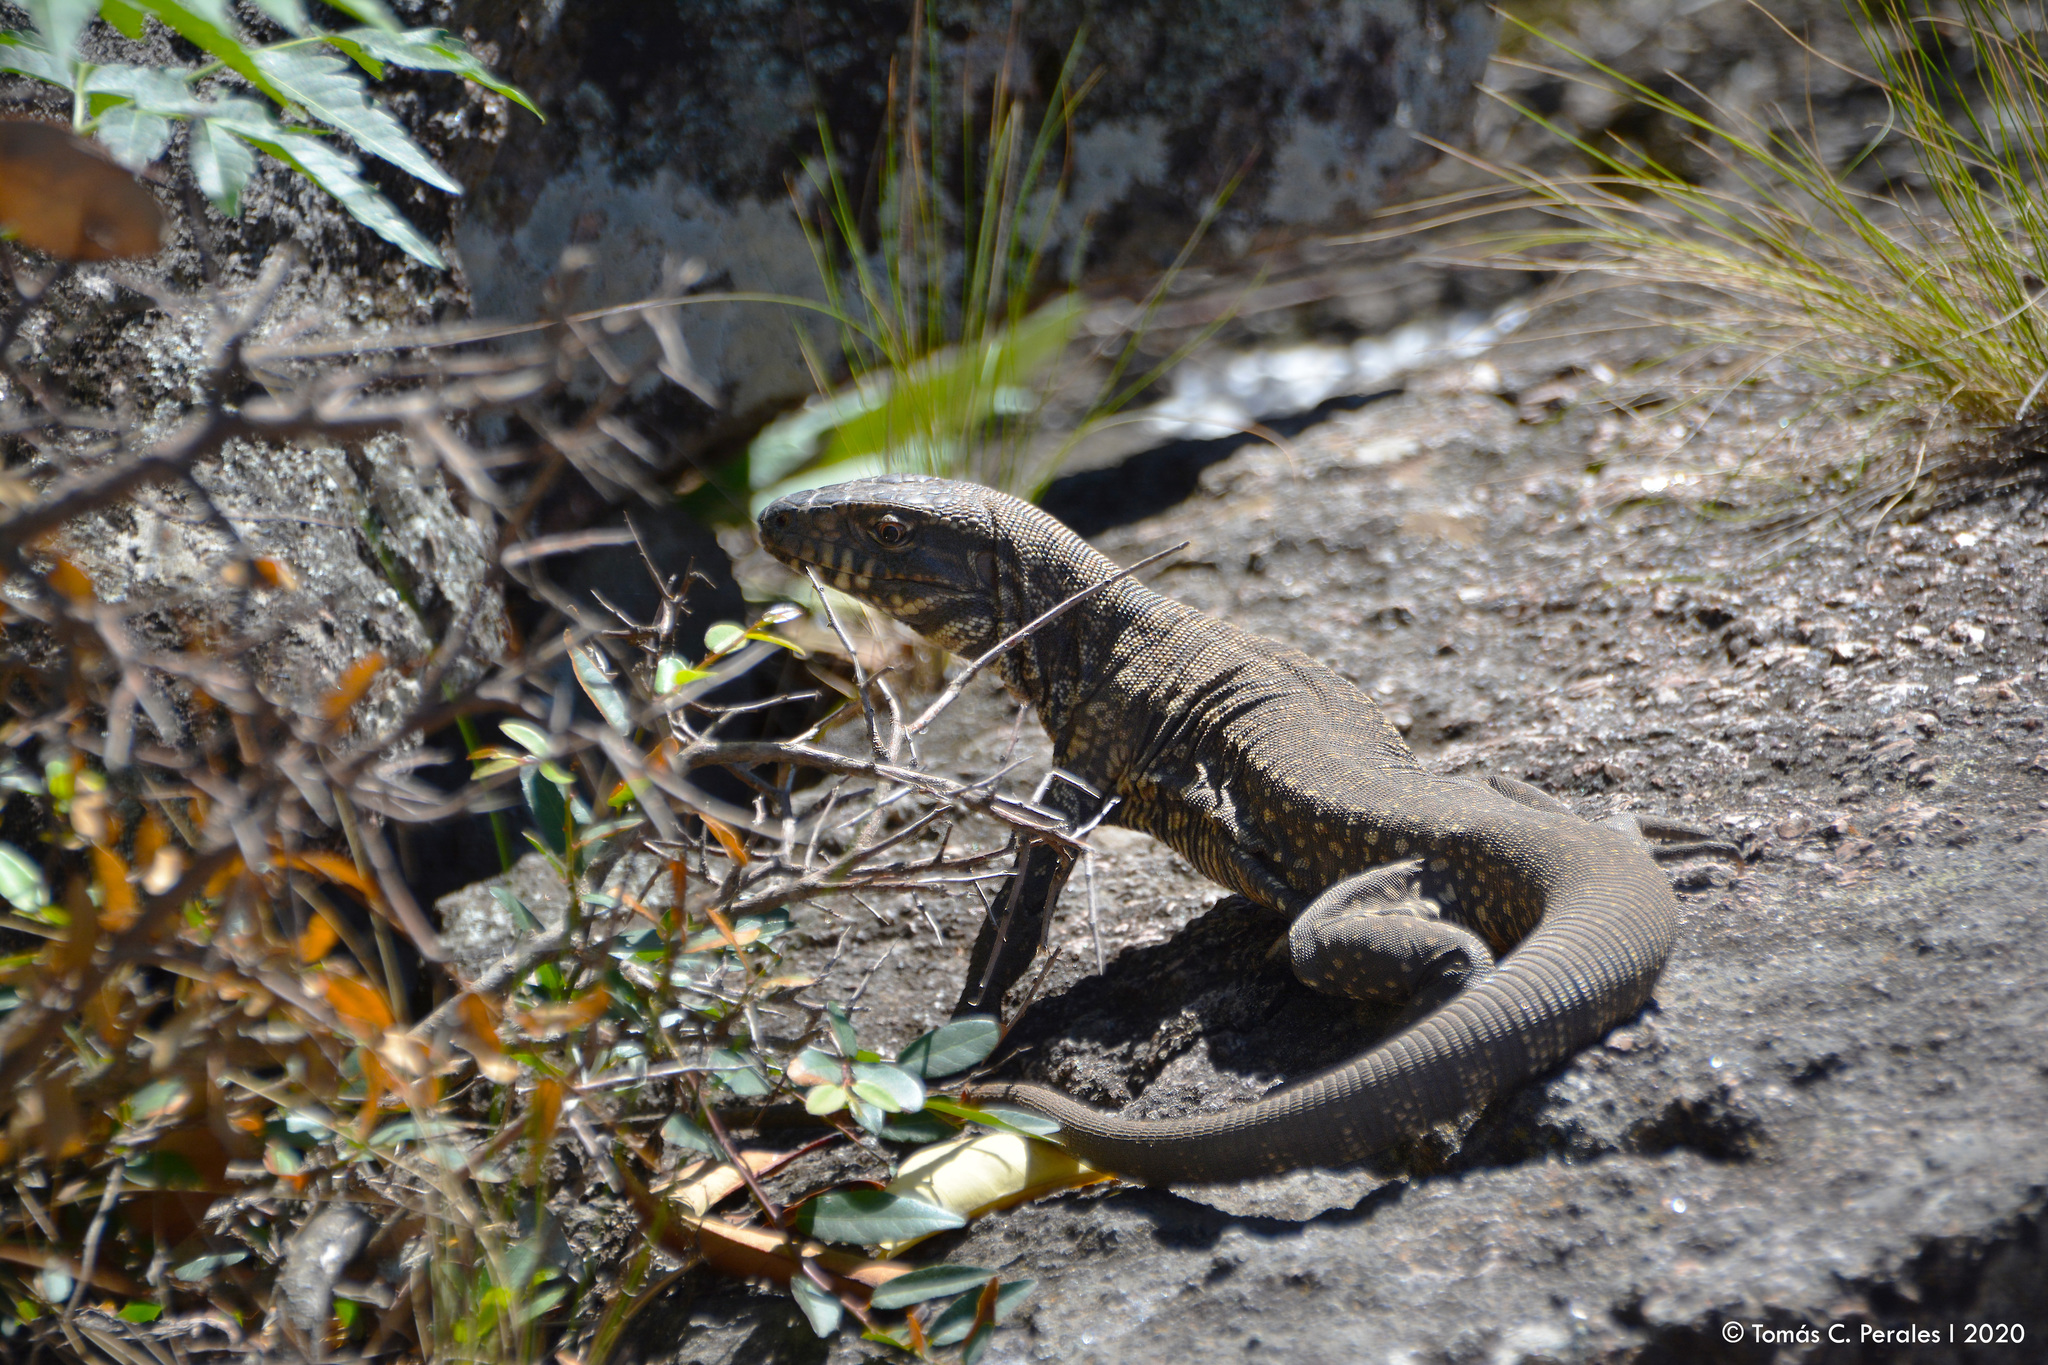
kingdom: Animalia
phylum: Chordata
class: Squamata
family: Teiidae
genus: Salvator
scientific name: Salvator merianae
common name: Argentine black and white tegu
